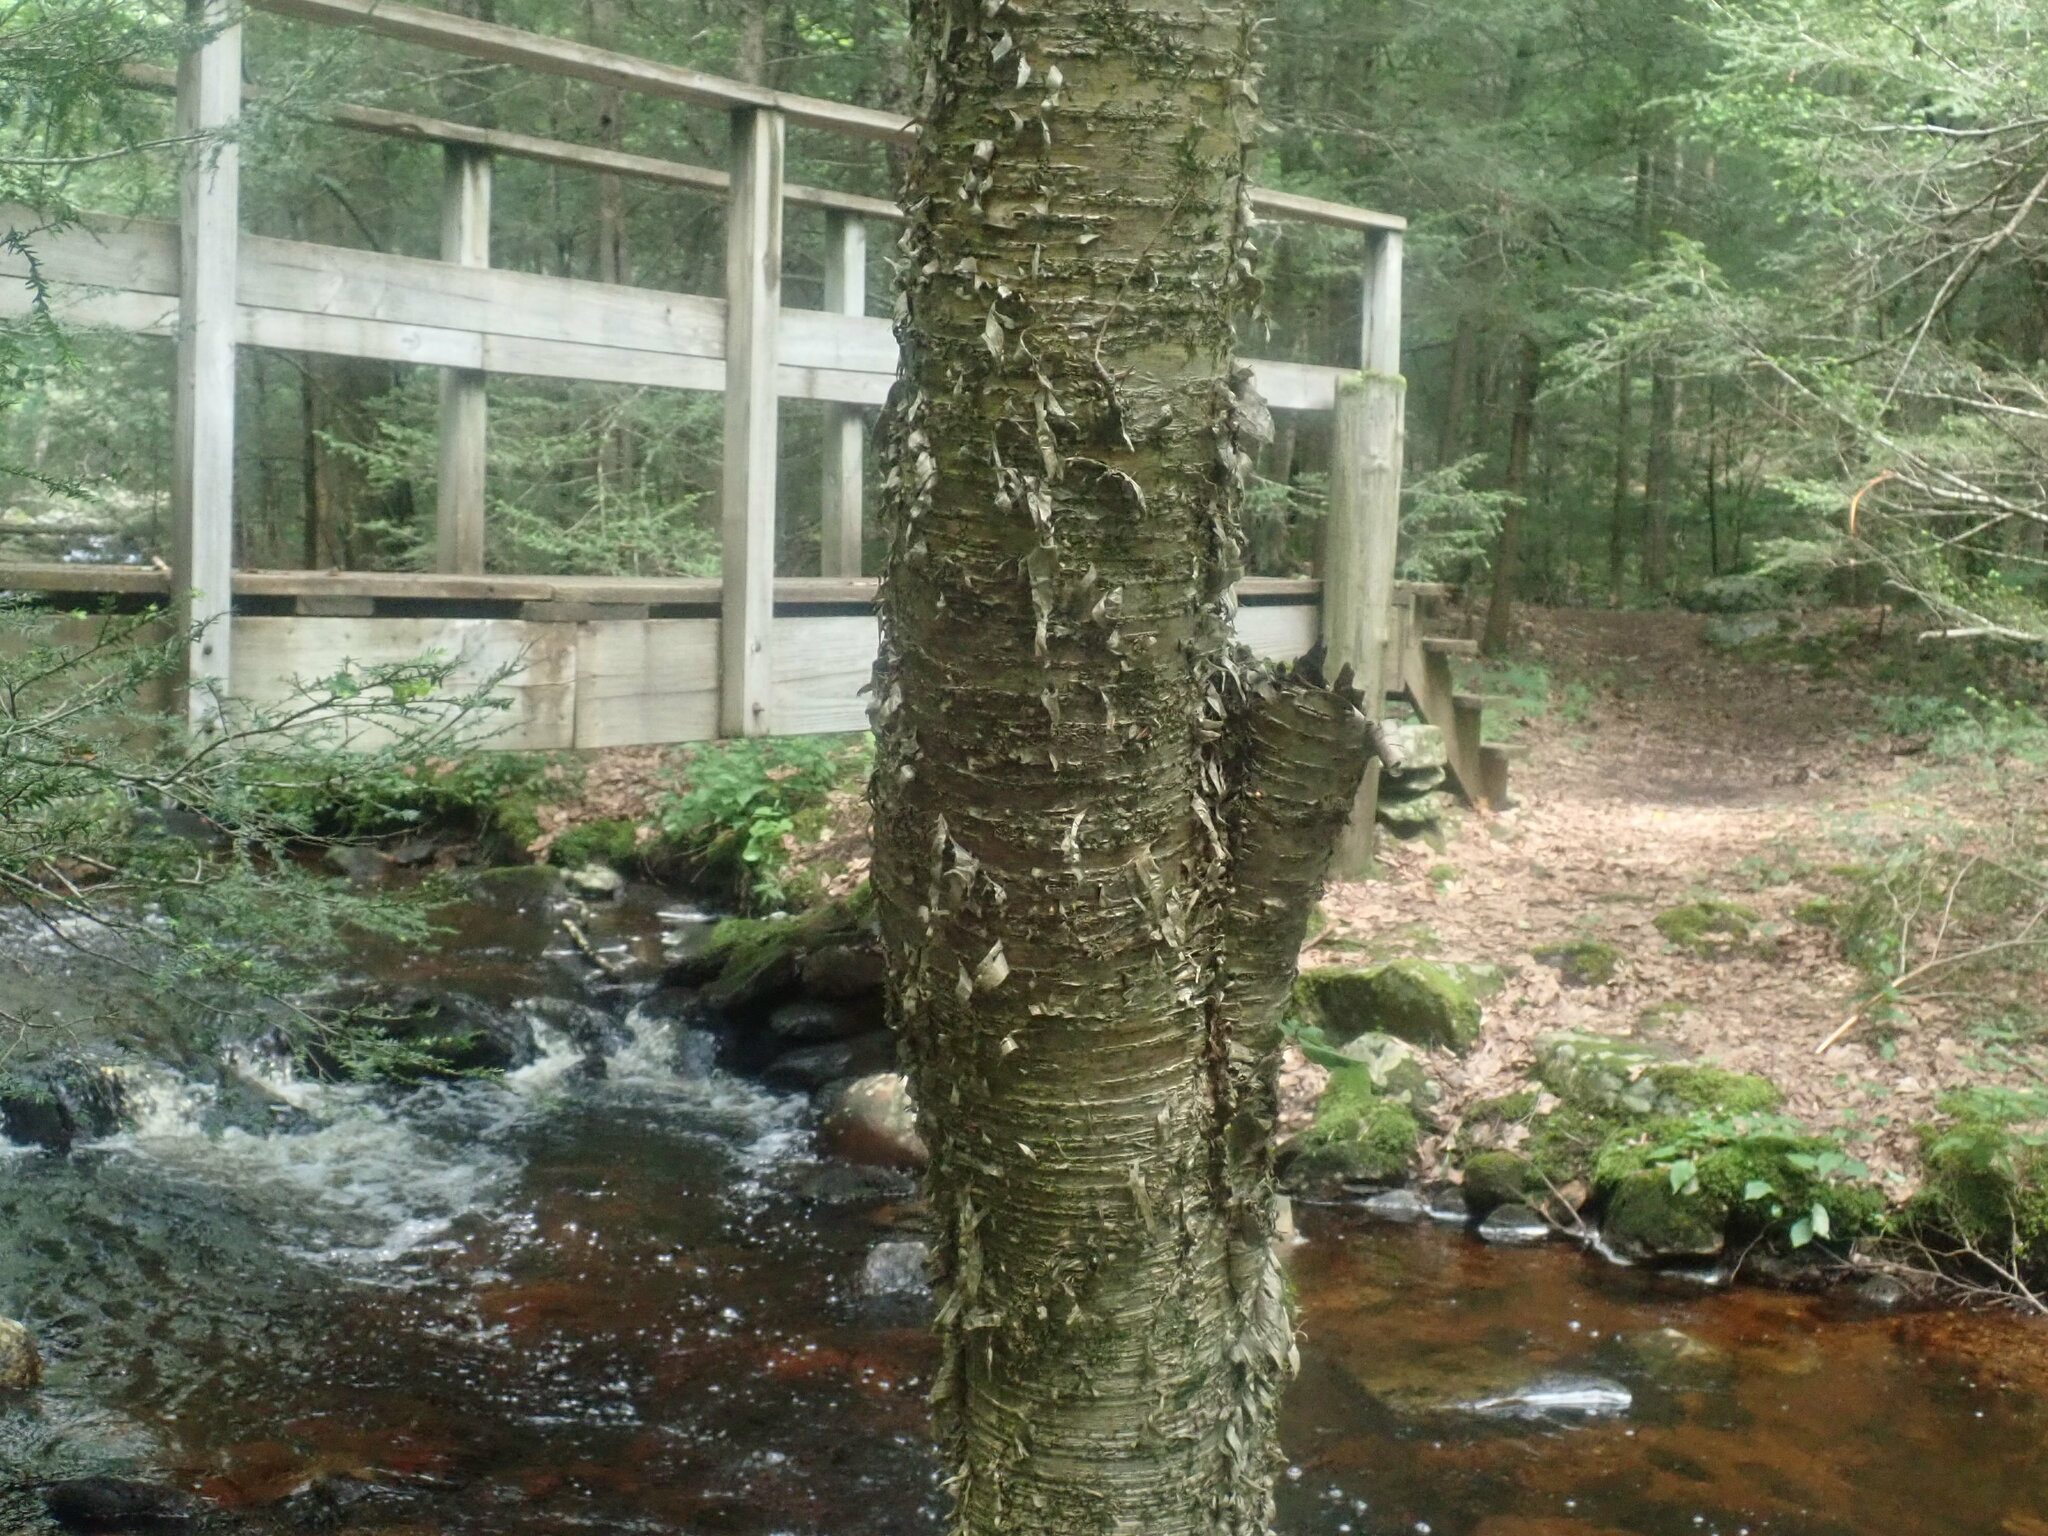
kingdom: Plantae
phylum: Tracheophyta
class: Magnoliopsida
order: Fagales
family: Betulaceae
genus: Betula
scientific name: Betula alleghaniensis
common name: Yellow birch
